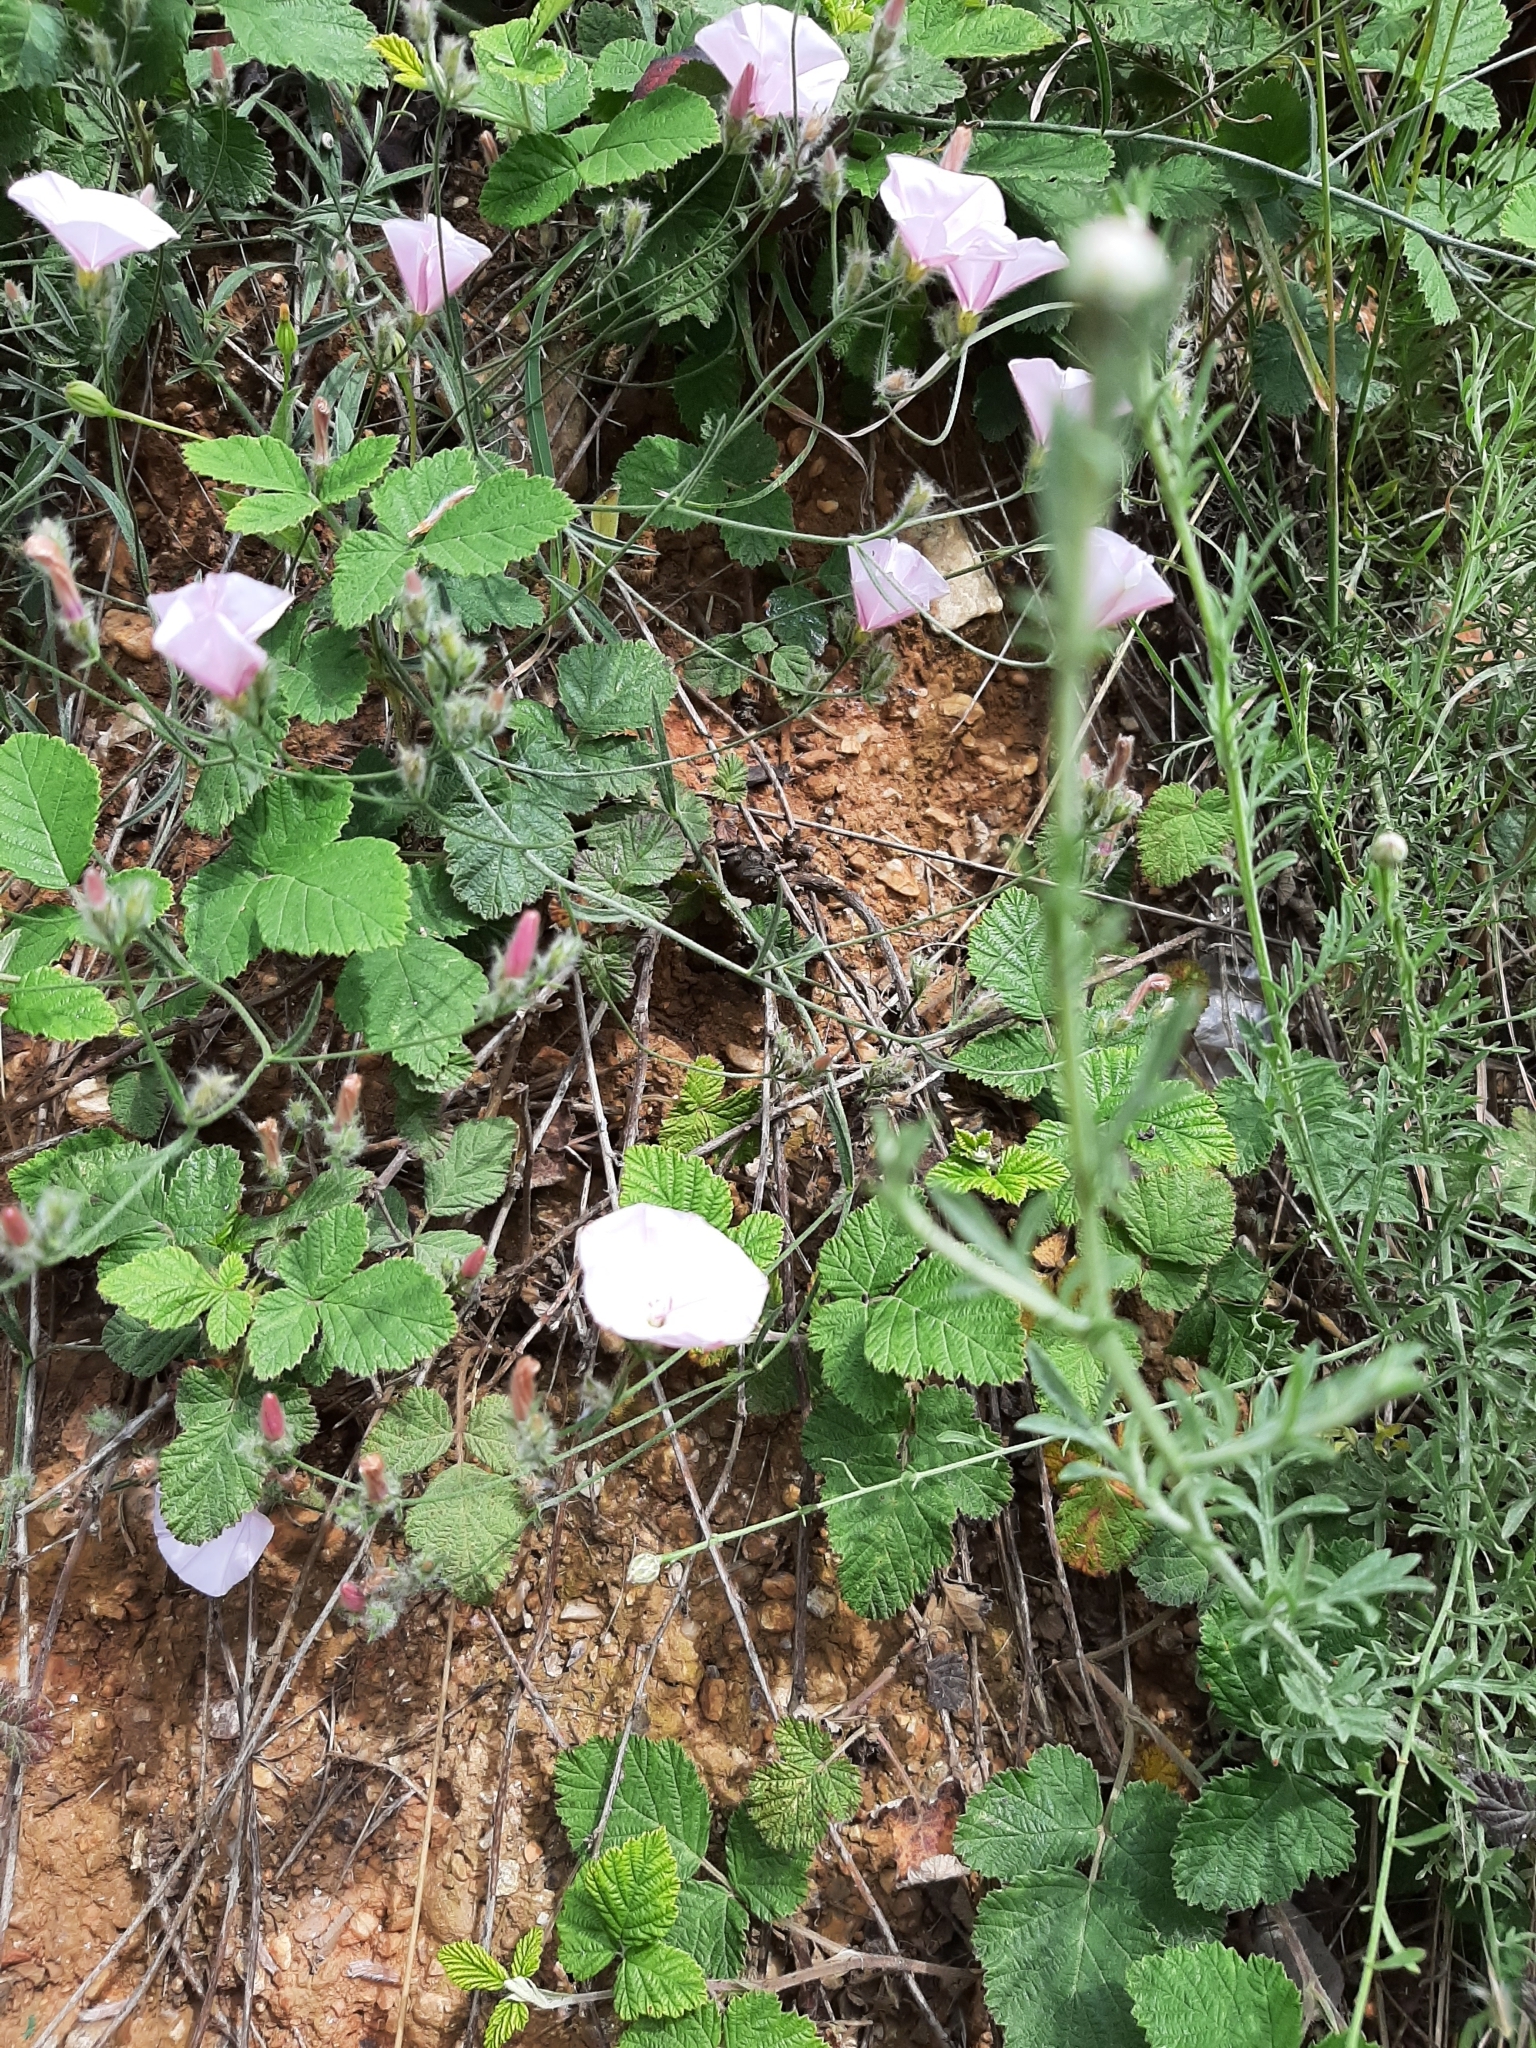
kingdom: Plantae
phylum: Tracheophyta
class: Magnoliopsida
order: Solanales
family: Convolvulaceae
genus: Convolvulus
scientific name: Convolvulus cantabrica
